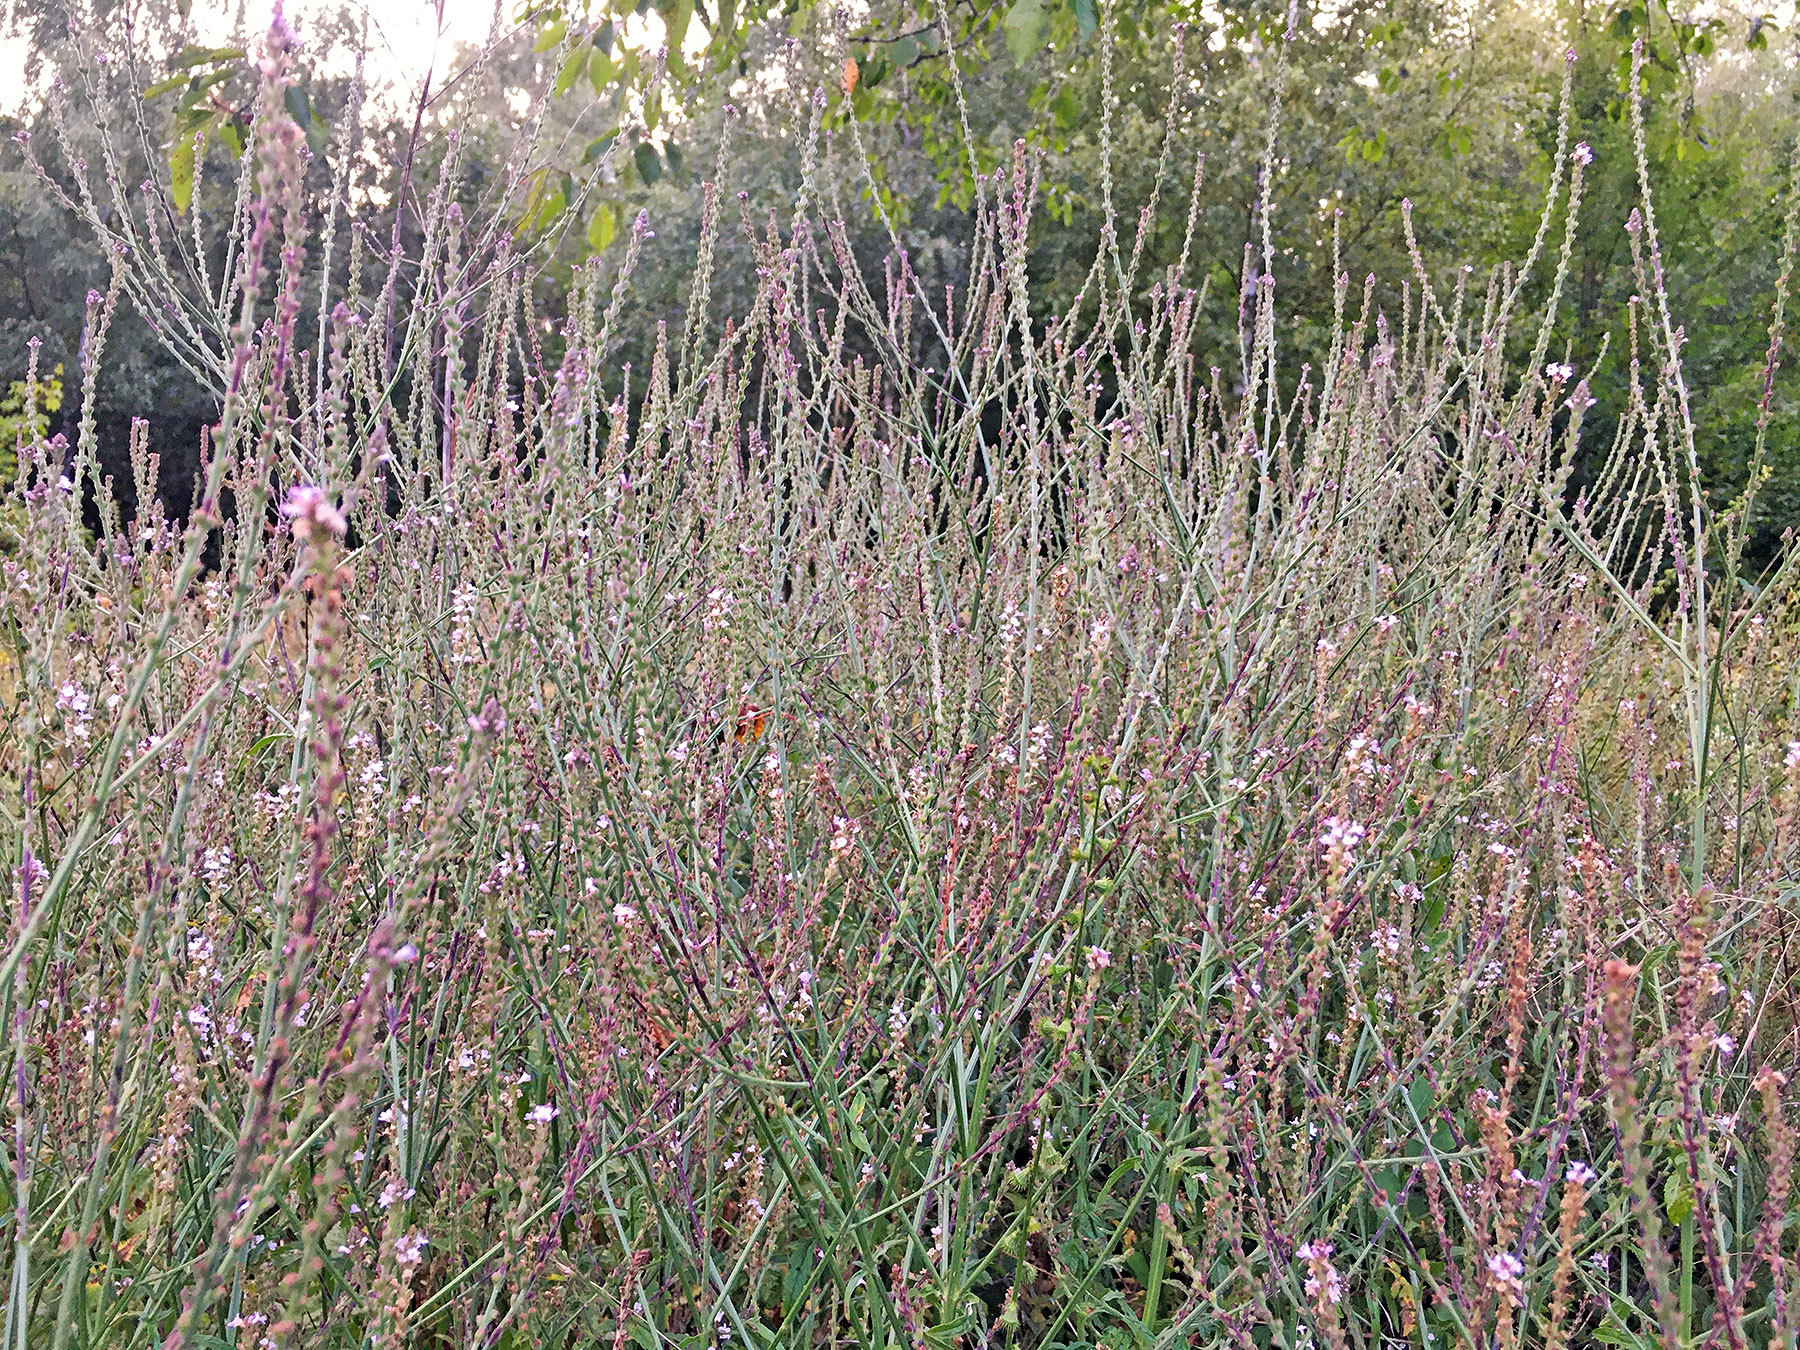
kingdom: Plantae
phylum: Tracheophyta
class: Magnoliopsida
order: Lamiales
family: Verbenaceae
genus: Verbena
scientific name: Verbena officinalis
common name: Vervain
